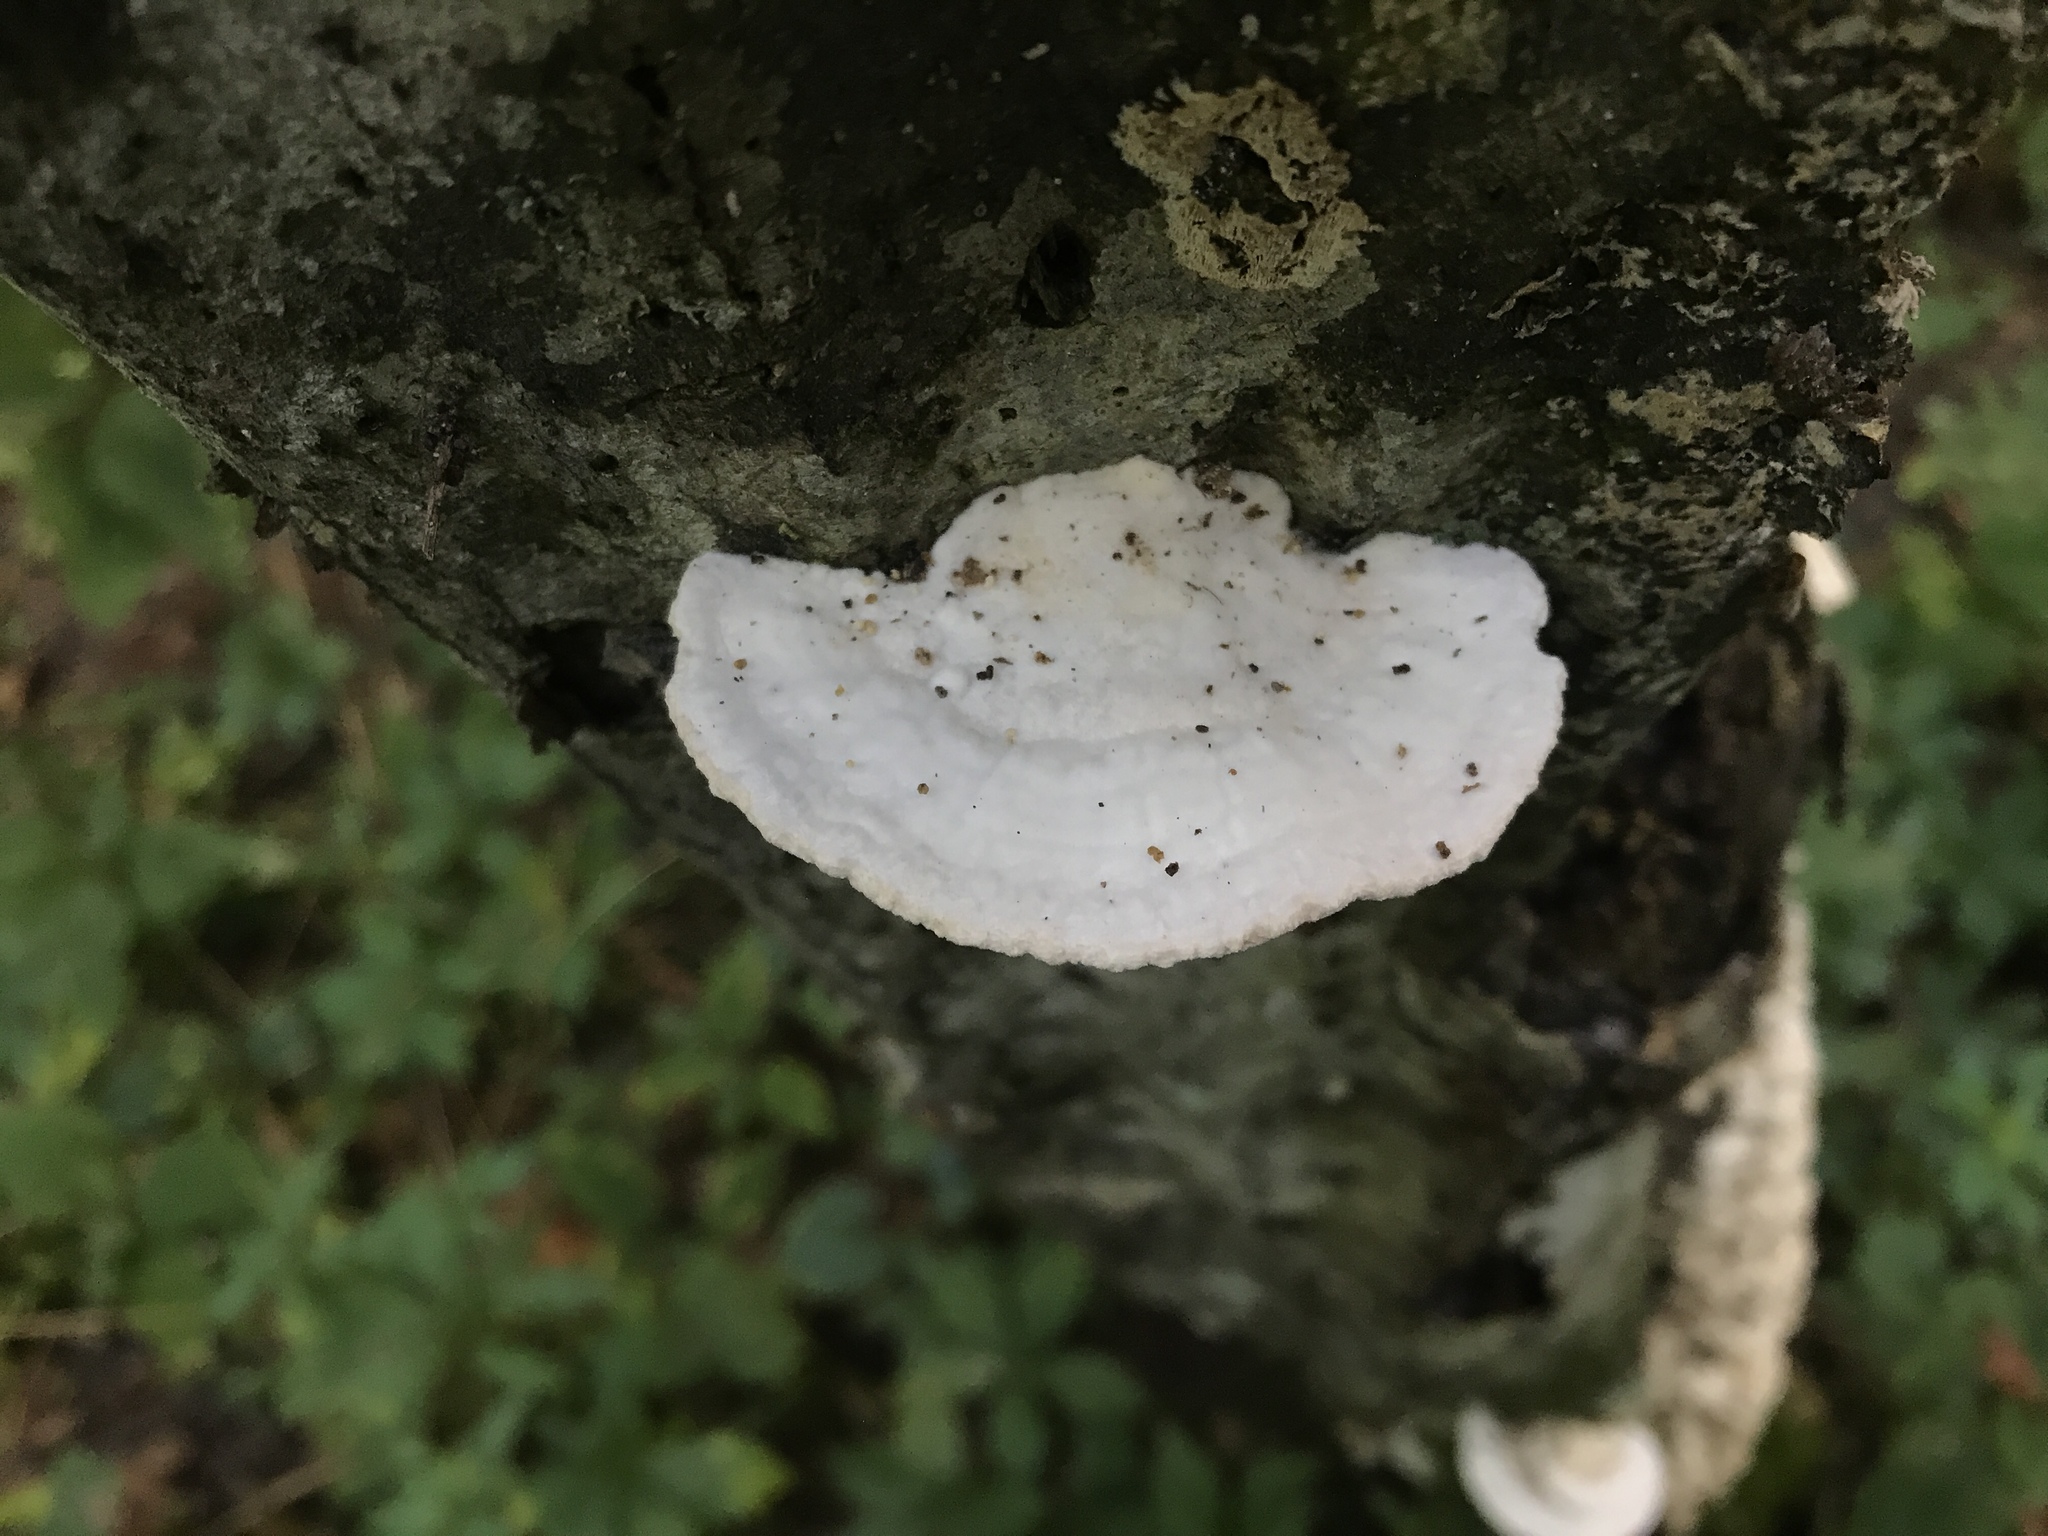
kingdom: Fungi
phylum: Basidiomycota
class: Agaricomycetes
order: Polyporales
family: Polyporaceae
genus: Trametes
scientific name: Trametes
